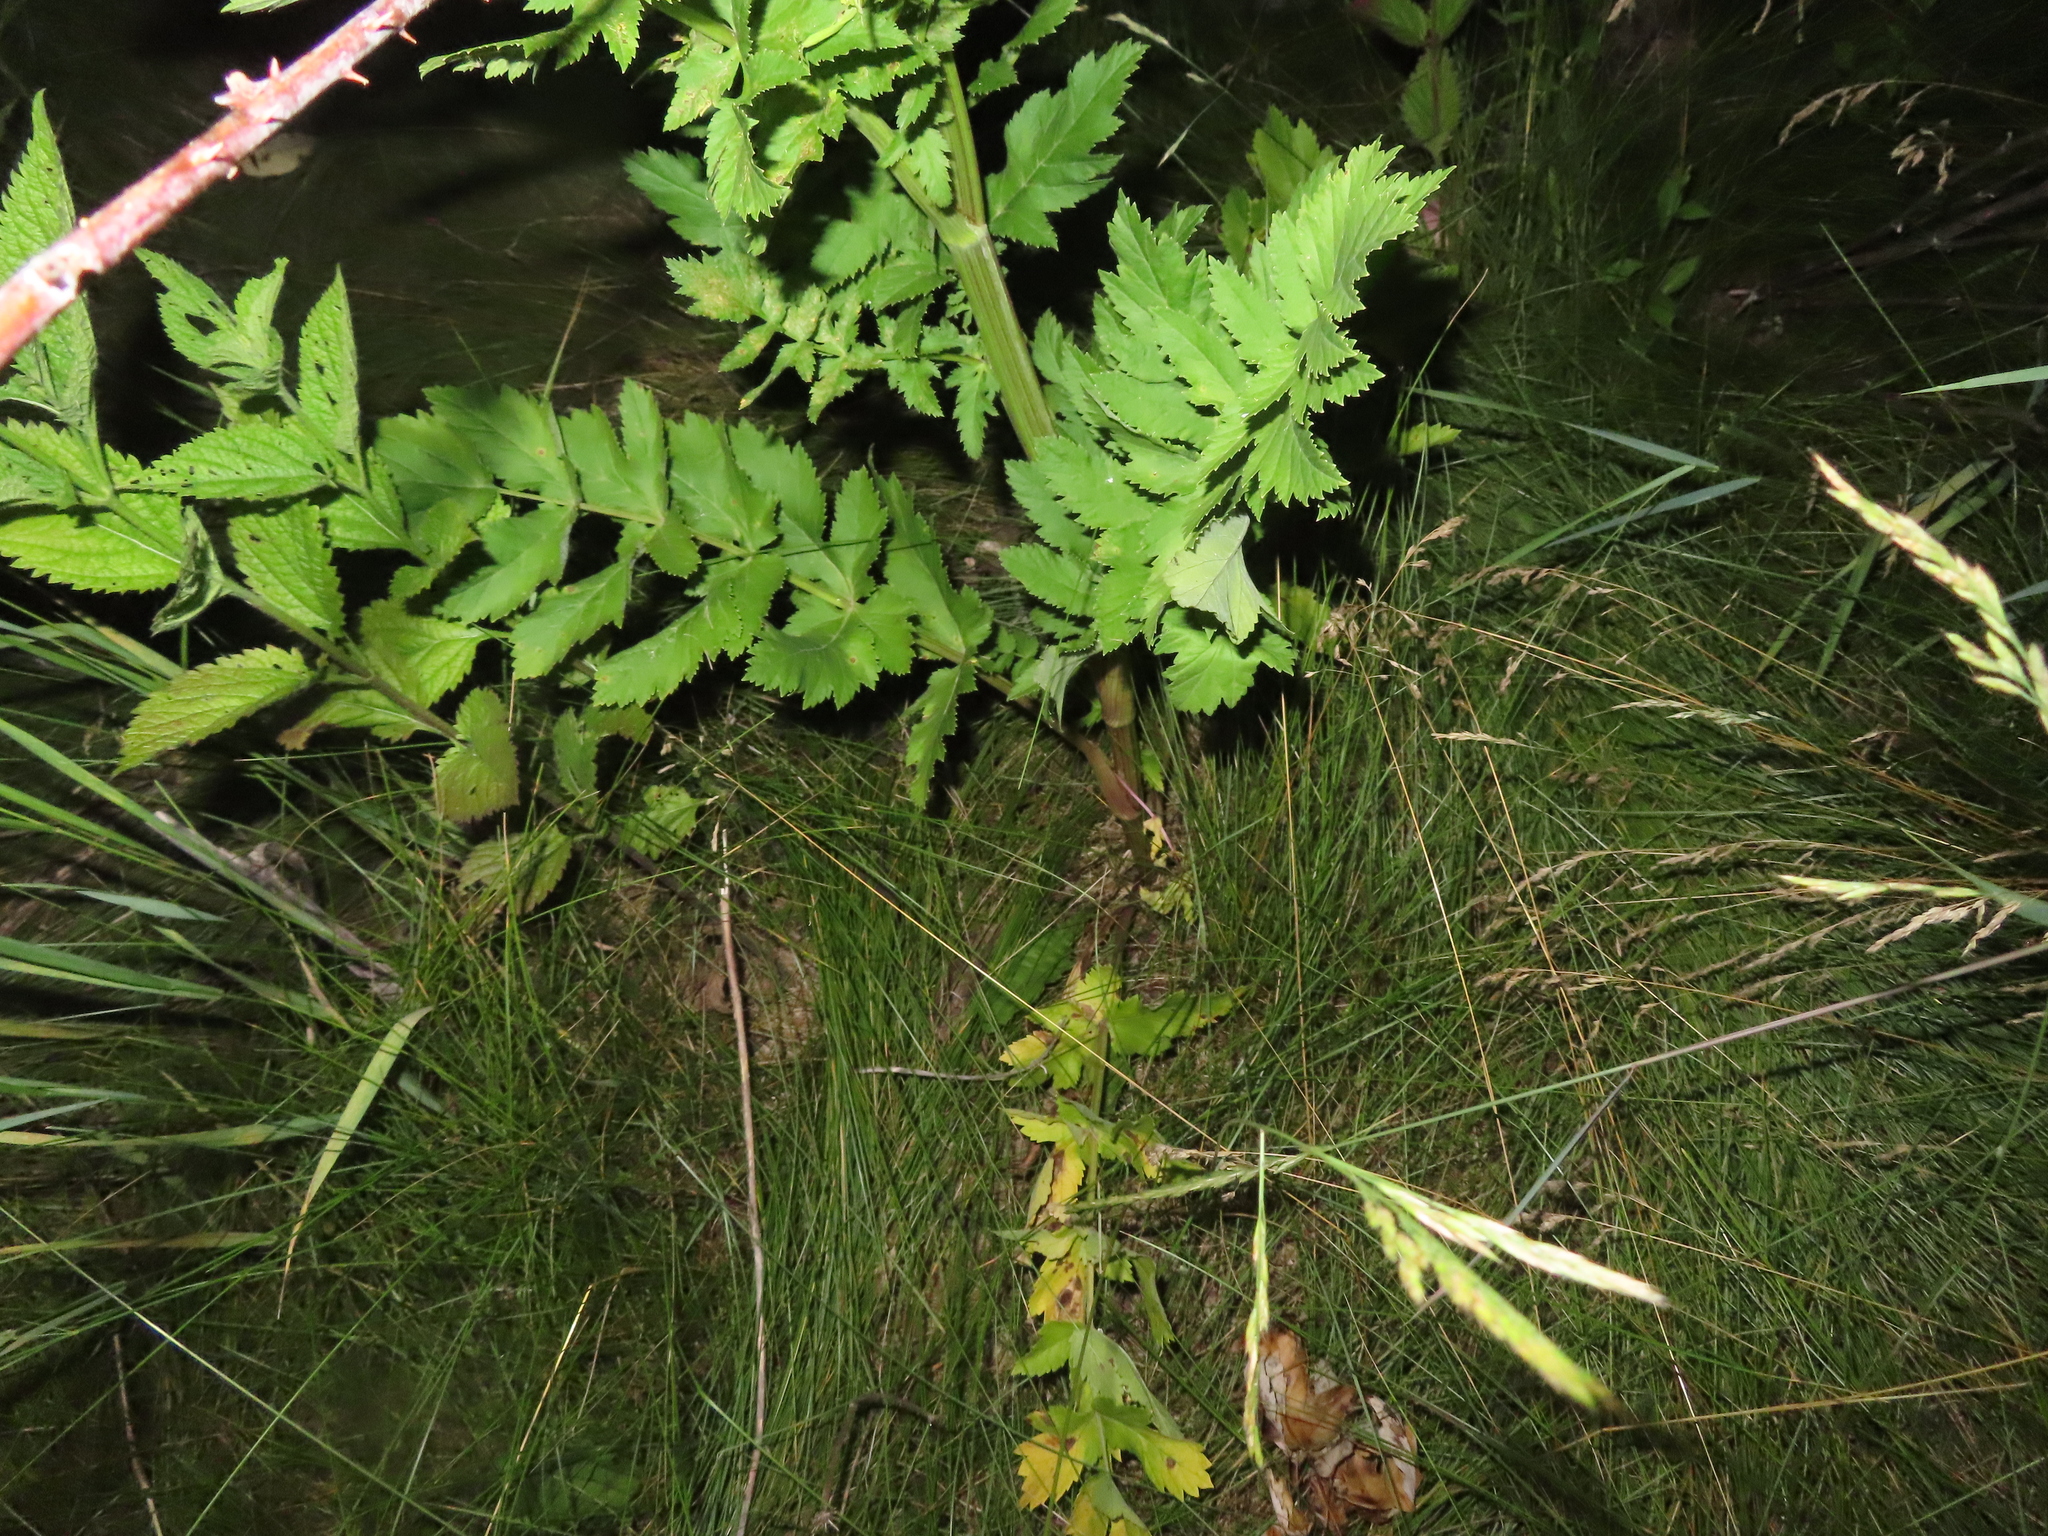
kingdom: Plantae
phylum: Tracheophyta
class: Magnoliopsida
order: Apiales
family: Apiaceae
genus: Pastinaca
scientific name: Pastinaca sativa
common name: Wild parsnip
